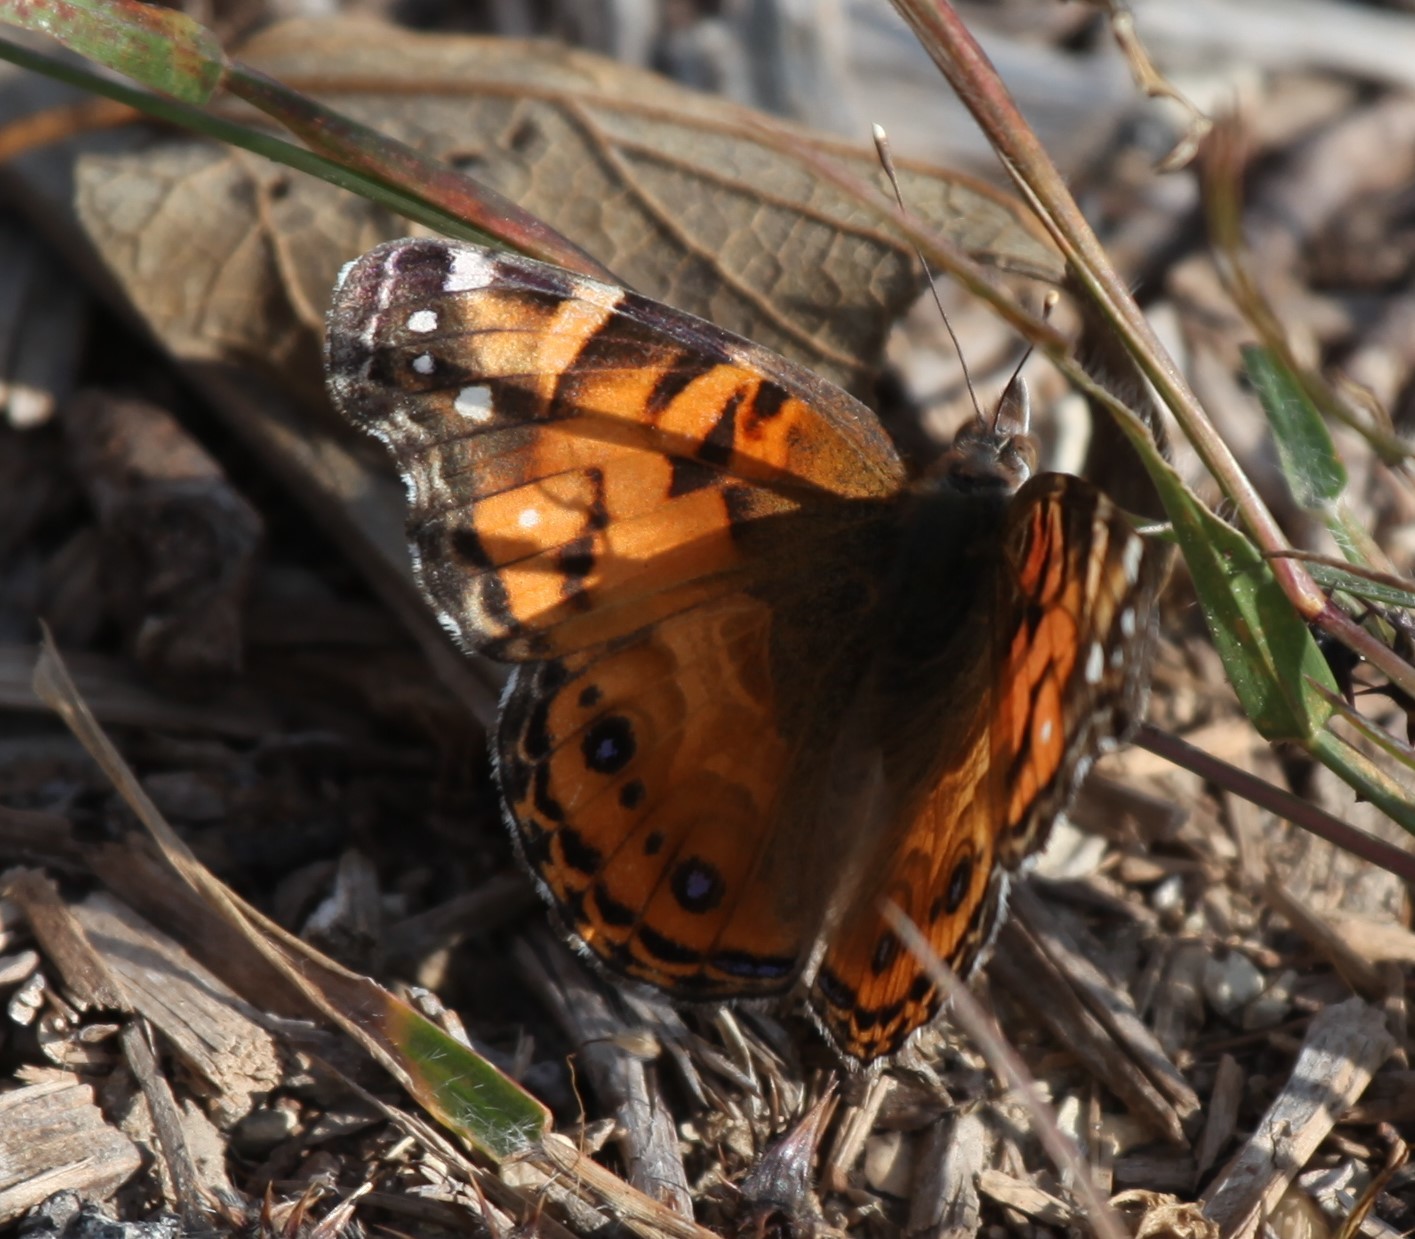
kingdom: Animalia
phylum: Arthropoda
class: Insecta
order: Lepidoptera
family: Nymphalidae
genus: Vanessa
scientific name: Vanessa virginiensis
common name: American lady
